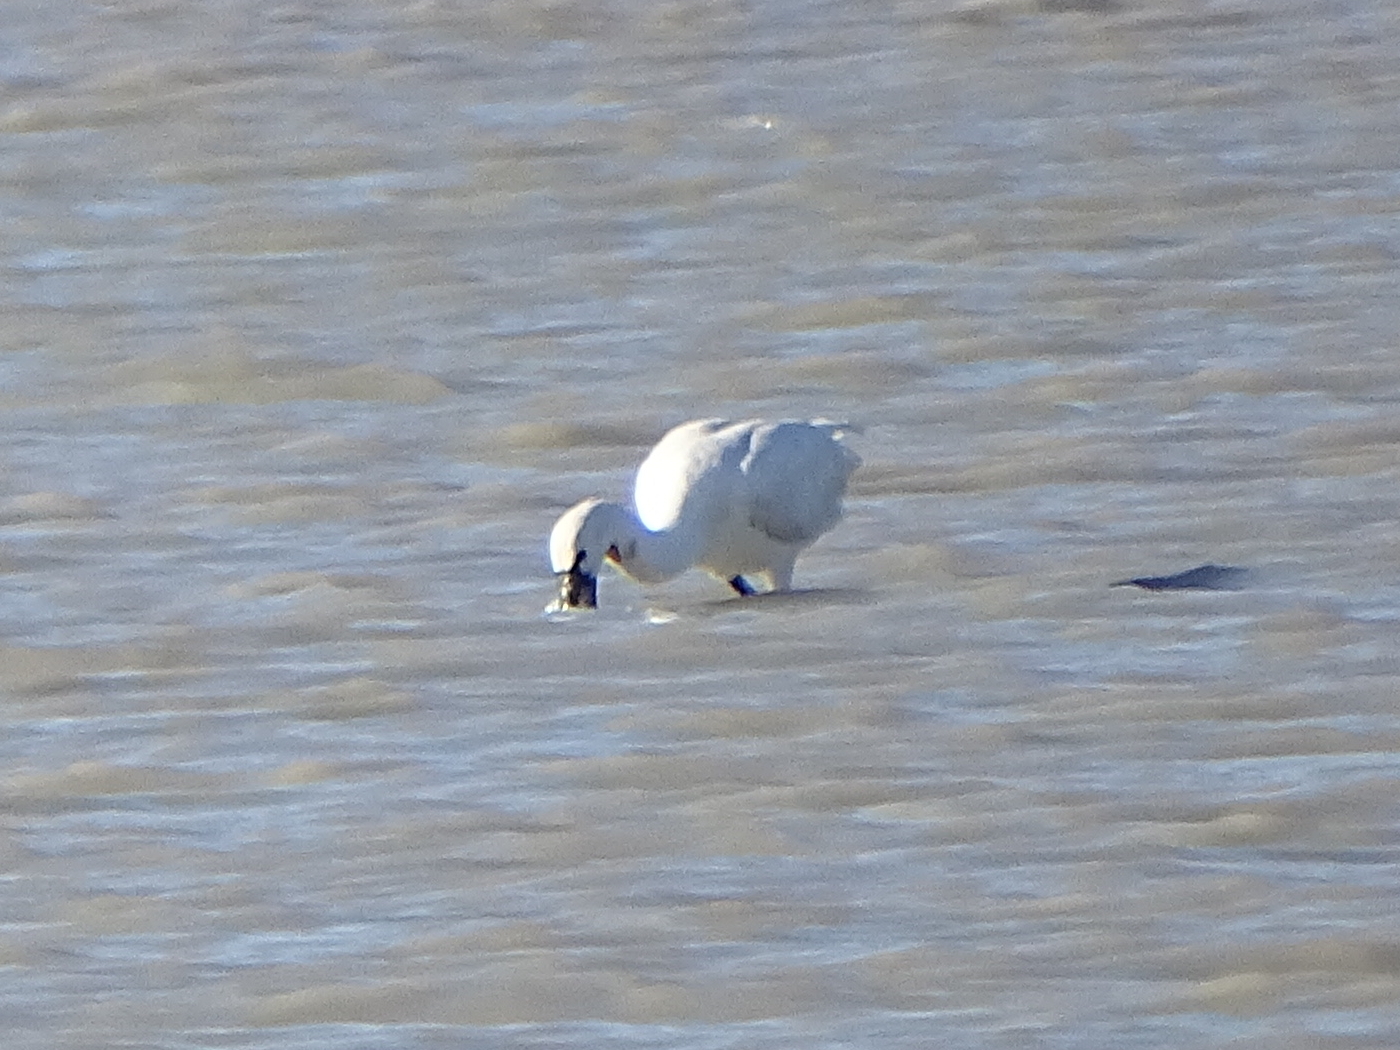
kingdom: Animalia
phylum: Chordata
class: Aves
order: Pelecaniformes
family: Threskiornithidae
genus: Platalea
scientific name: Platalea leucorodia
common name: Eurasian spoonbill
